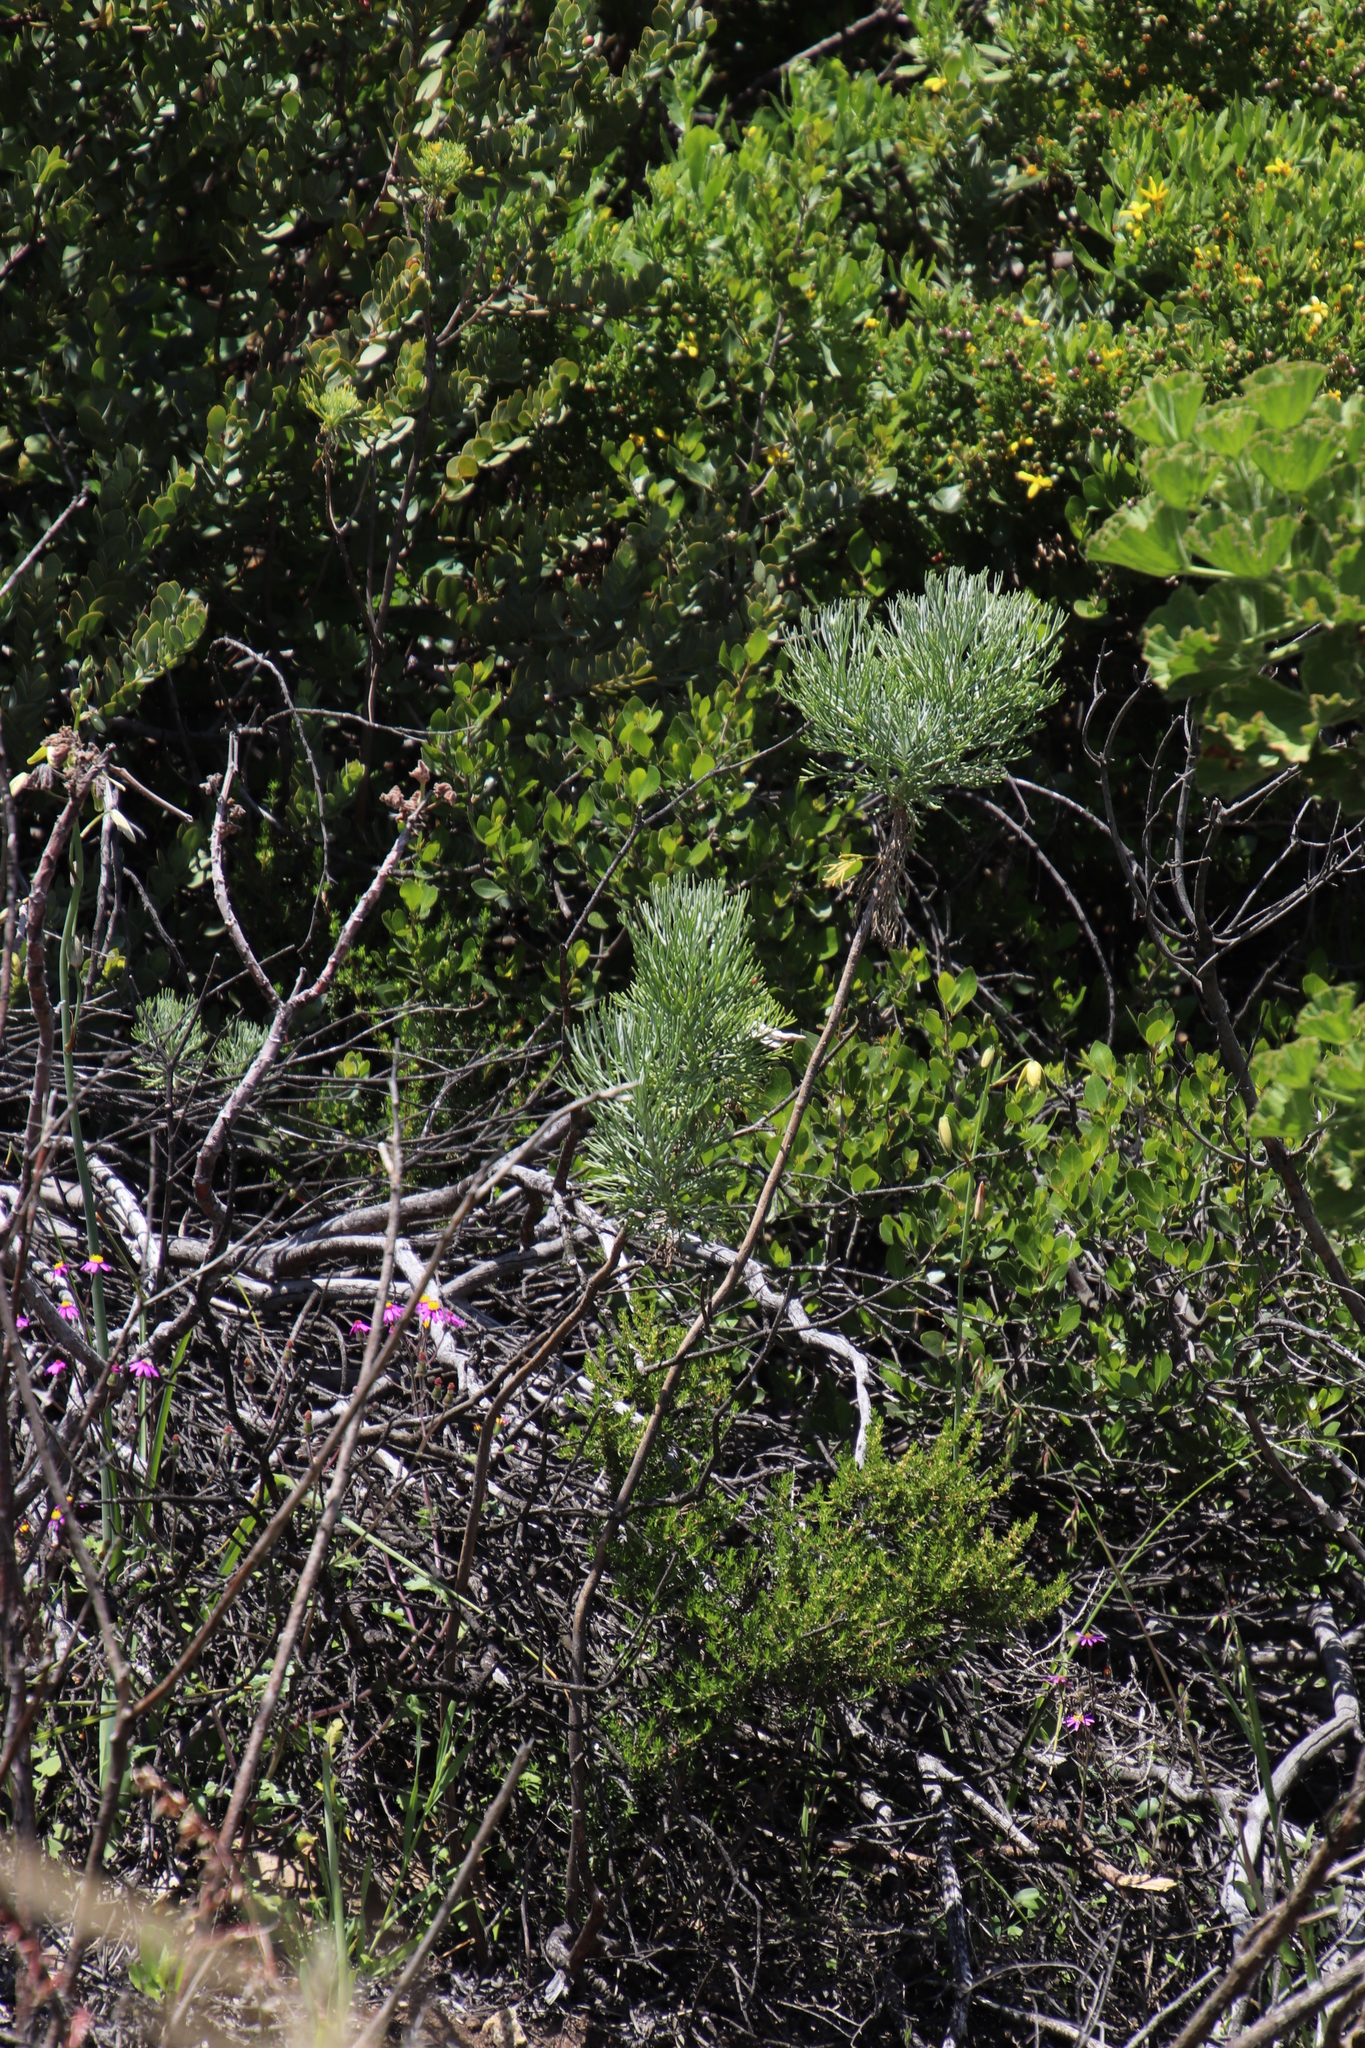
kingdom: Plantae
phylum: Tracheophyta
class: Magnoliopsida
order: Asterales
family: Asteraceae
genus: Athanasia
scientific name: Athanasia crithmifolia
